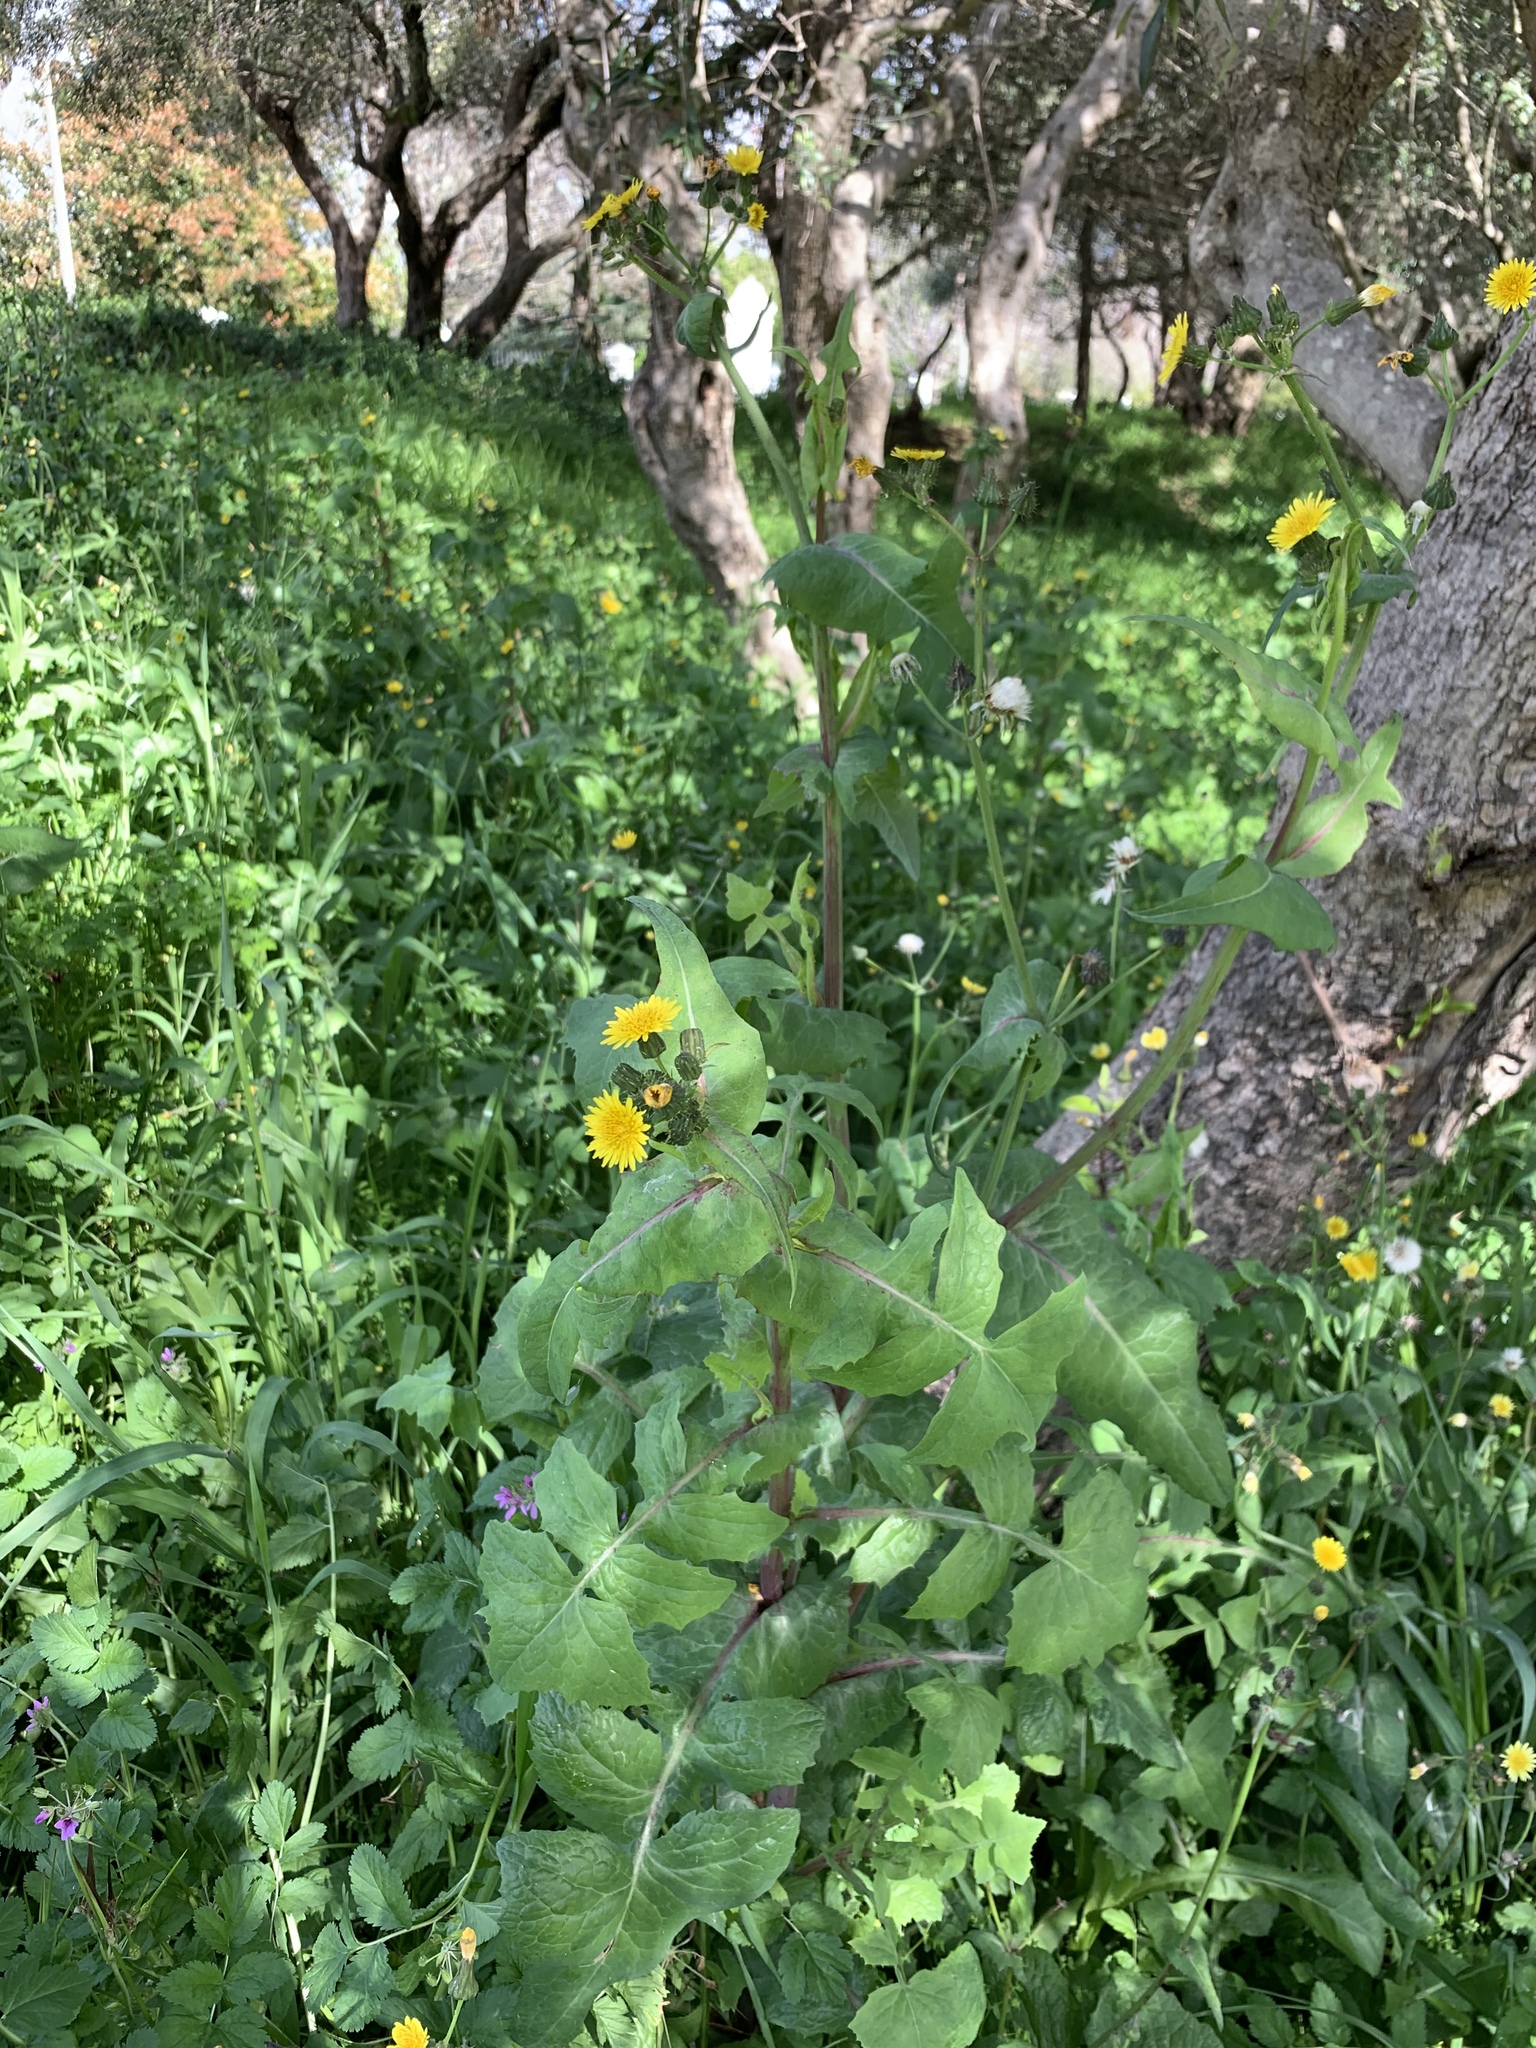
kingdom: Plantae
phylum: Tracheophyta
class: Magnoliopsida
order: Asterales
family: Asteraceae
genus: Sonchus
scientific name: Sonchus oleraceus
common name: Common sowthistle
